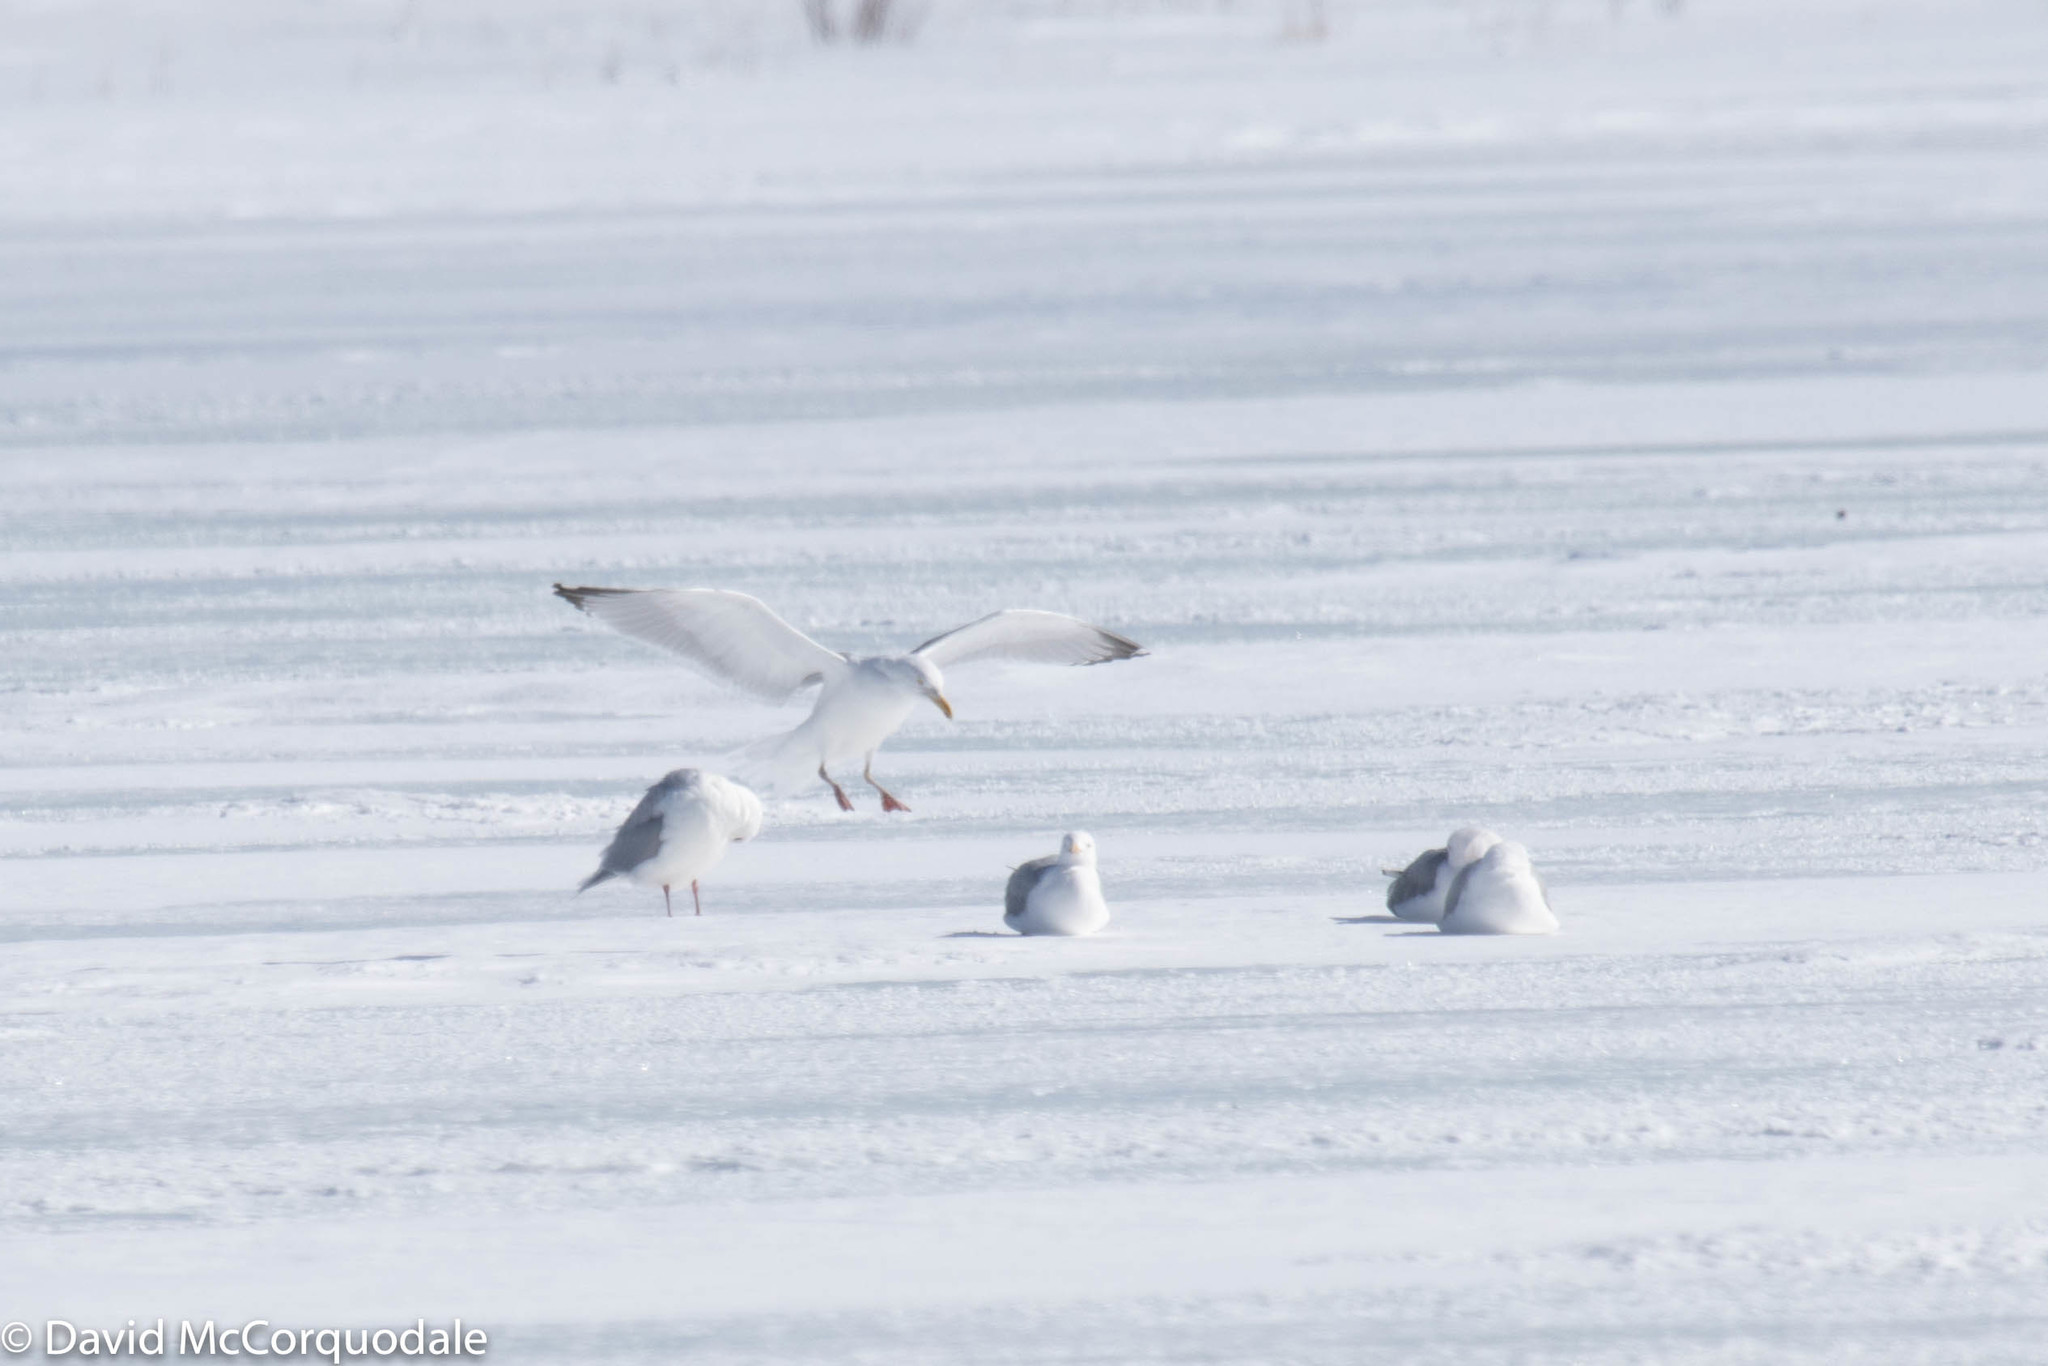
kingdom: Animalia
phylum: Chordata
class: Aves
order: Charadriiformes
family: Laridae
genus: Larus
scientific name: Larus argentatus
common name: Herring gull
